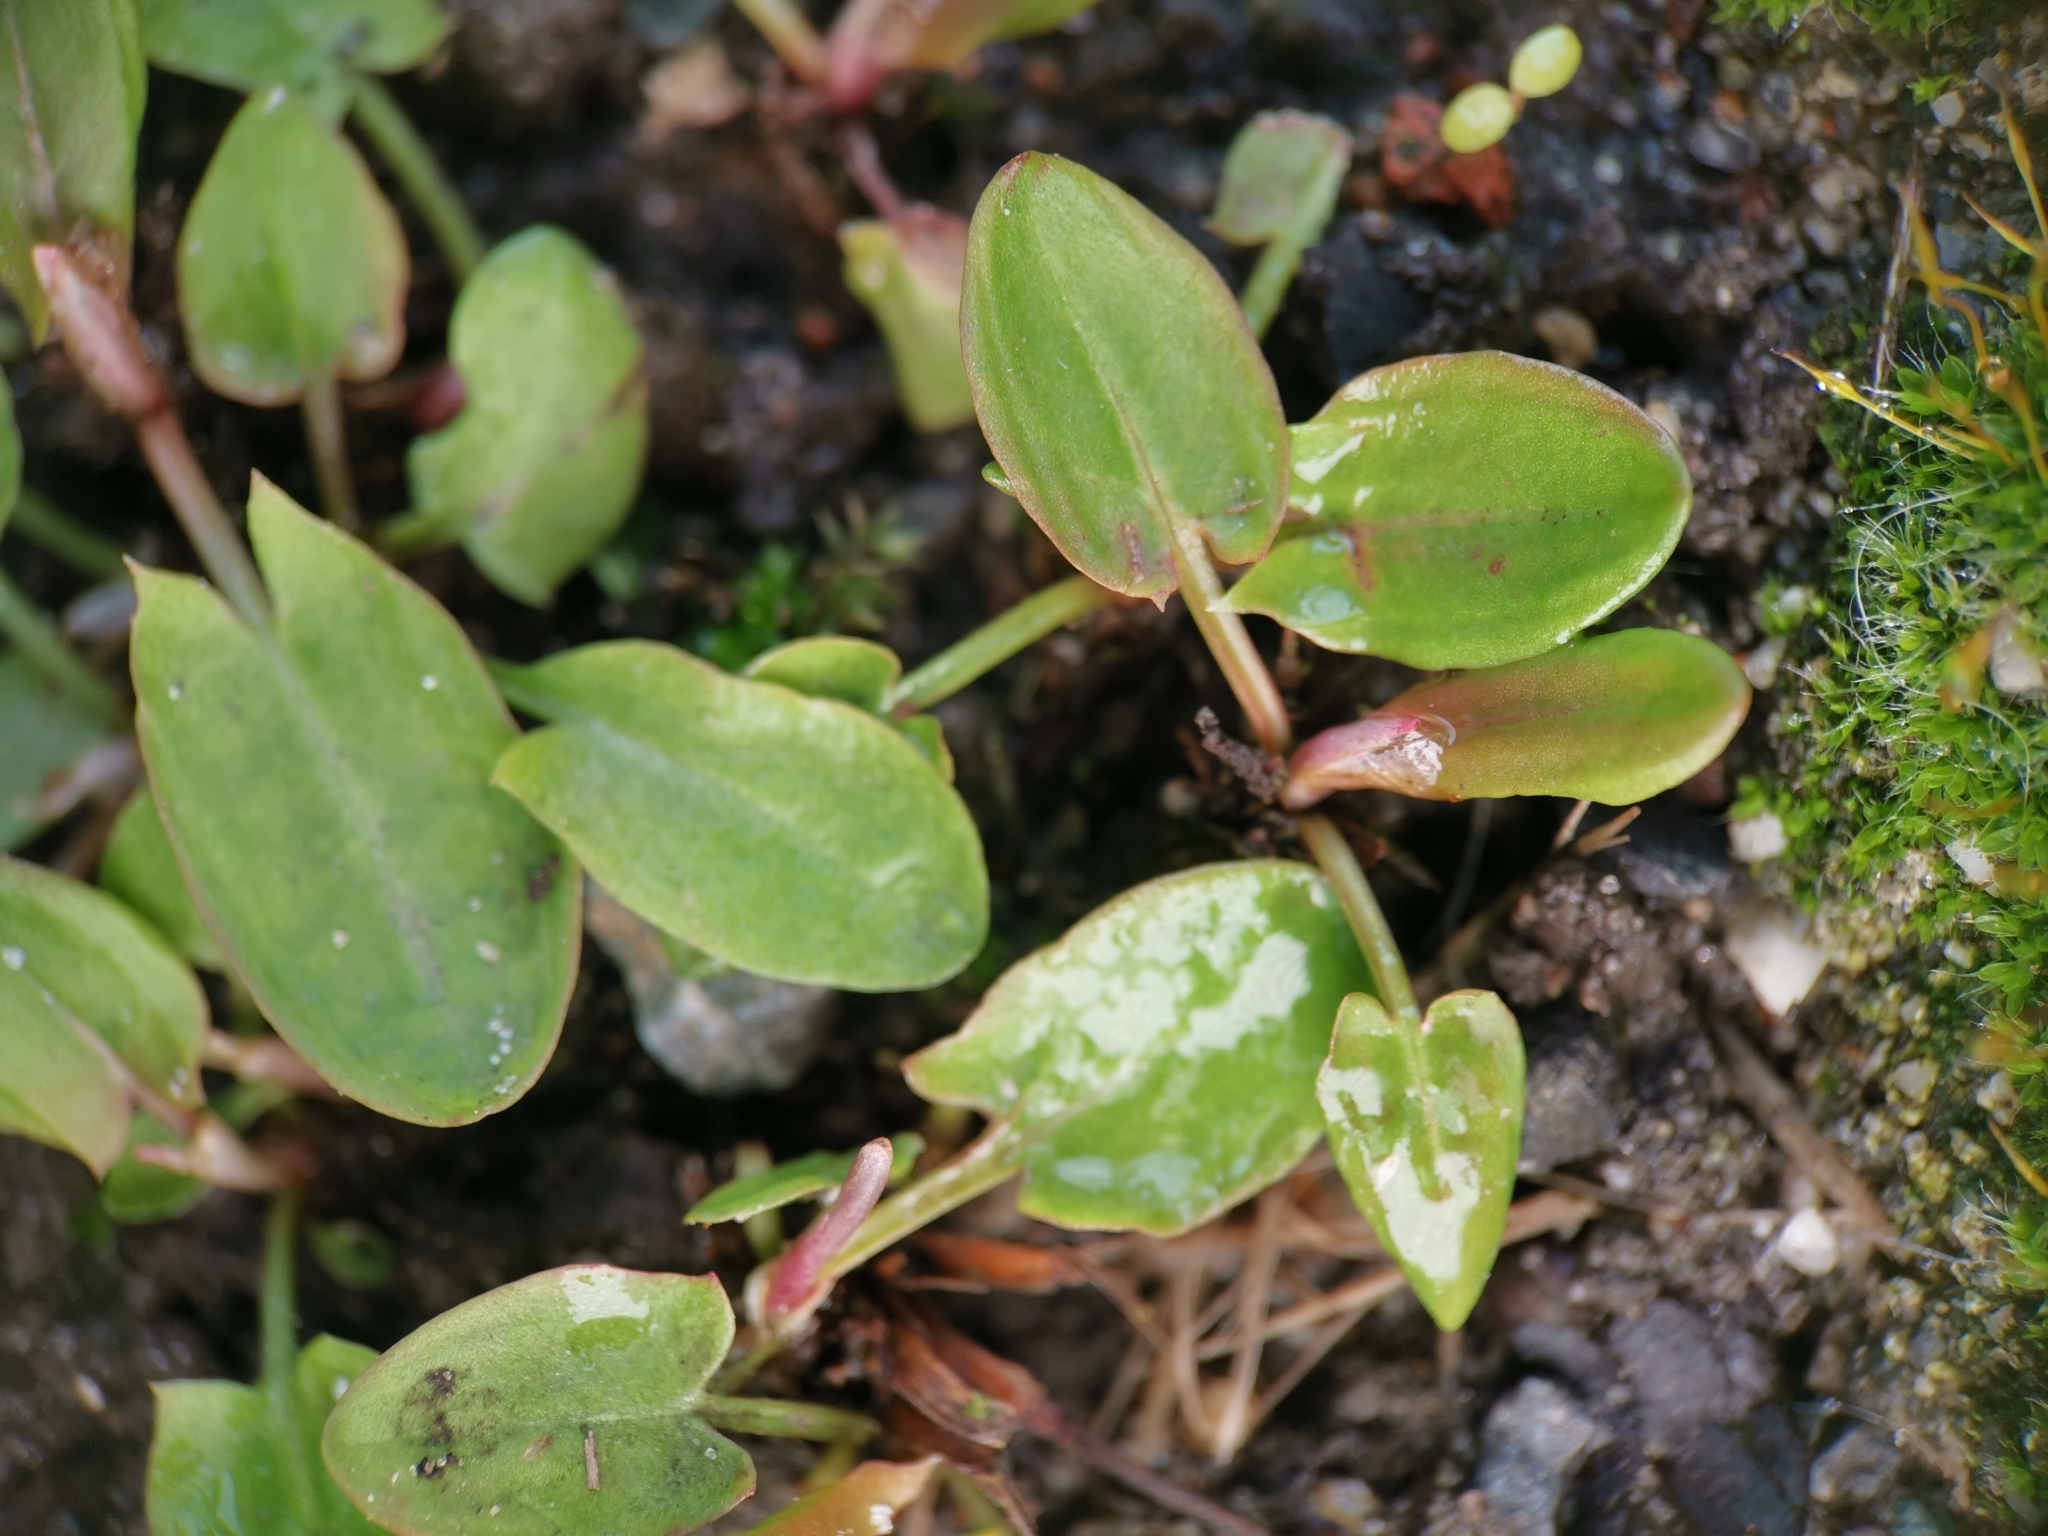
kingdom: Plantae
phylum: Tracheophyta
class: Magnoliopsida
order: Caryophyllales
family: Polygonaceae
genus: Rumex
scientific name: Rumex acetosa
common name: Garden sorrel
